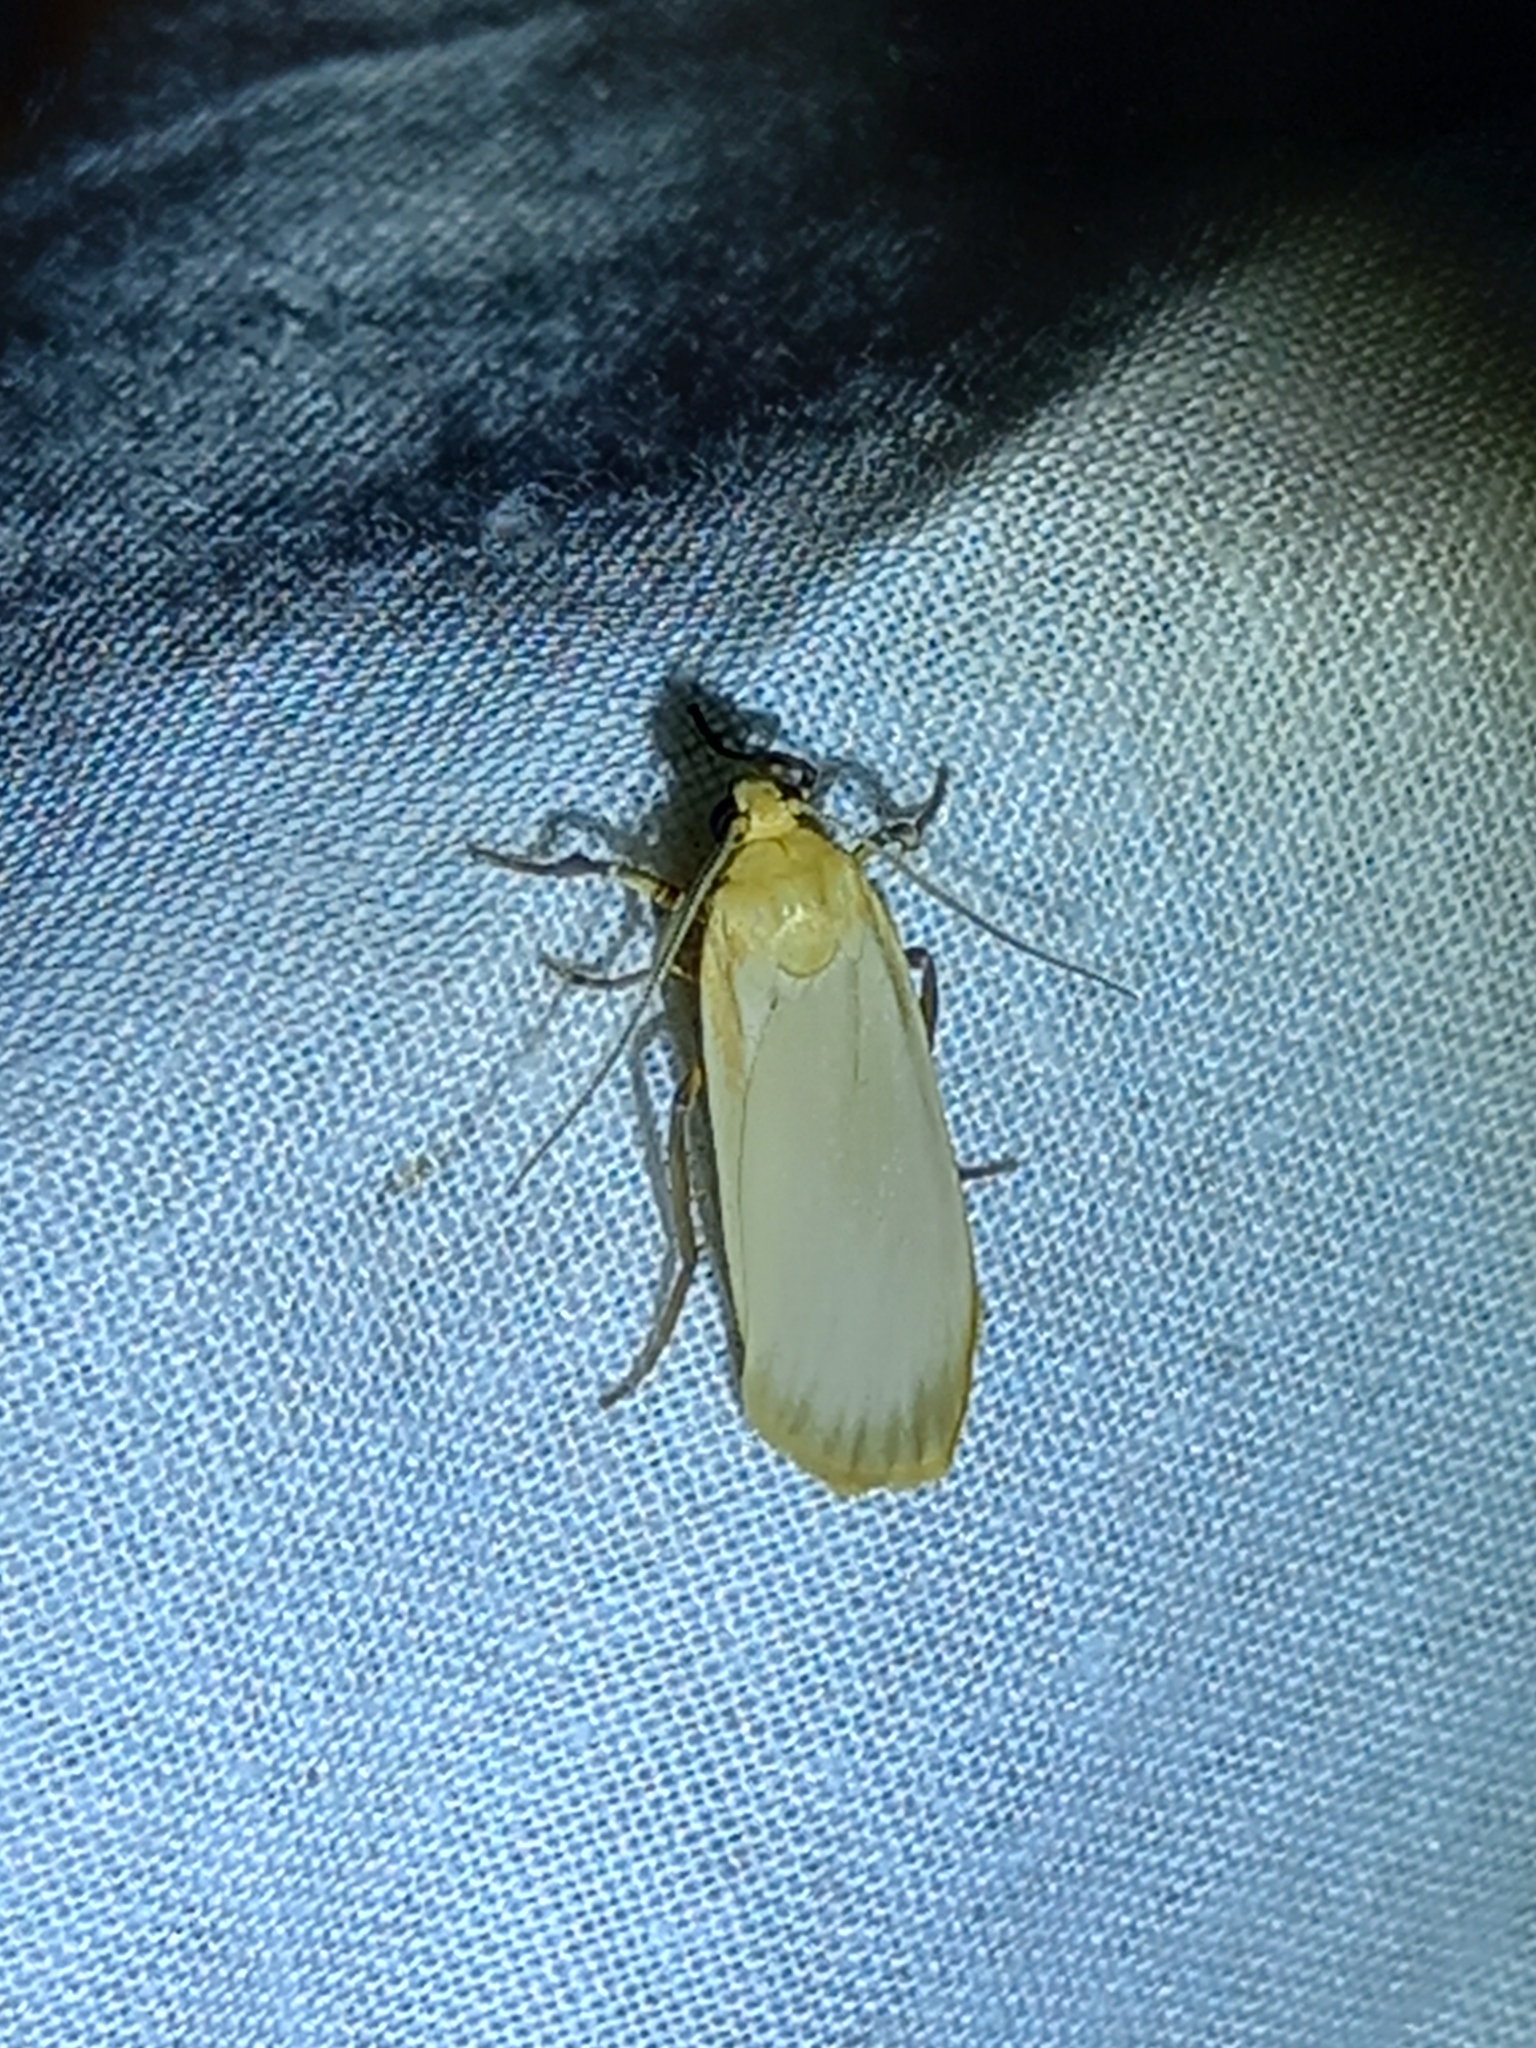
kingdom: Animalia
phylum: Arthropoda
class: Insecta
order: Lepidoptera
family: Erebidae
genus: Katha
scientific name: Katha depressa
